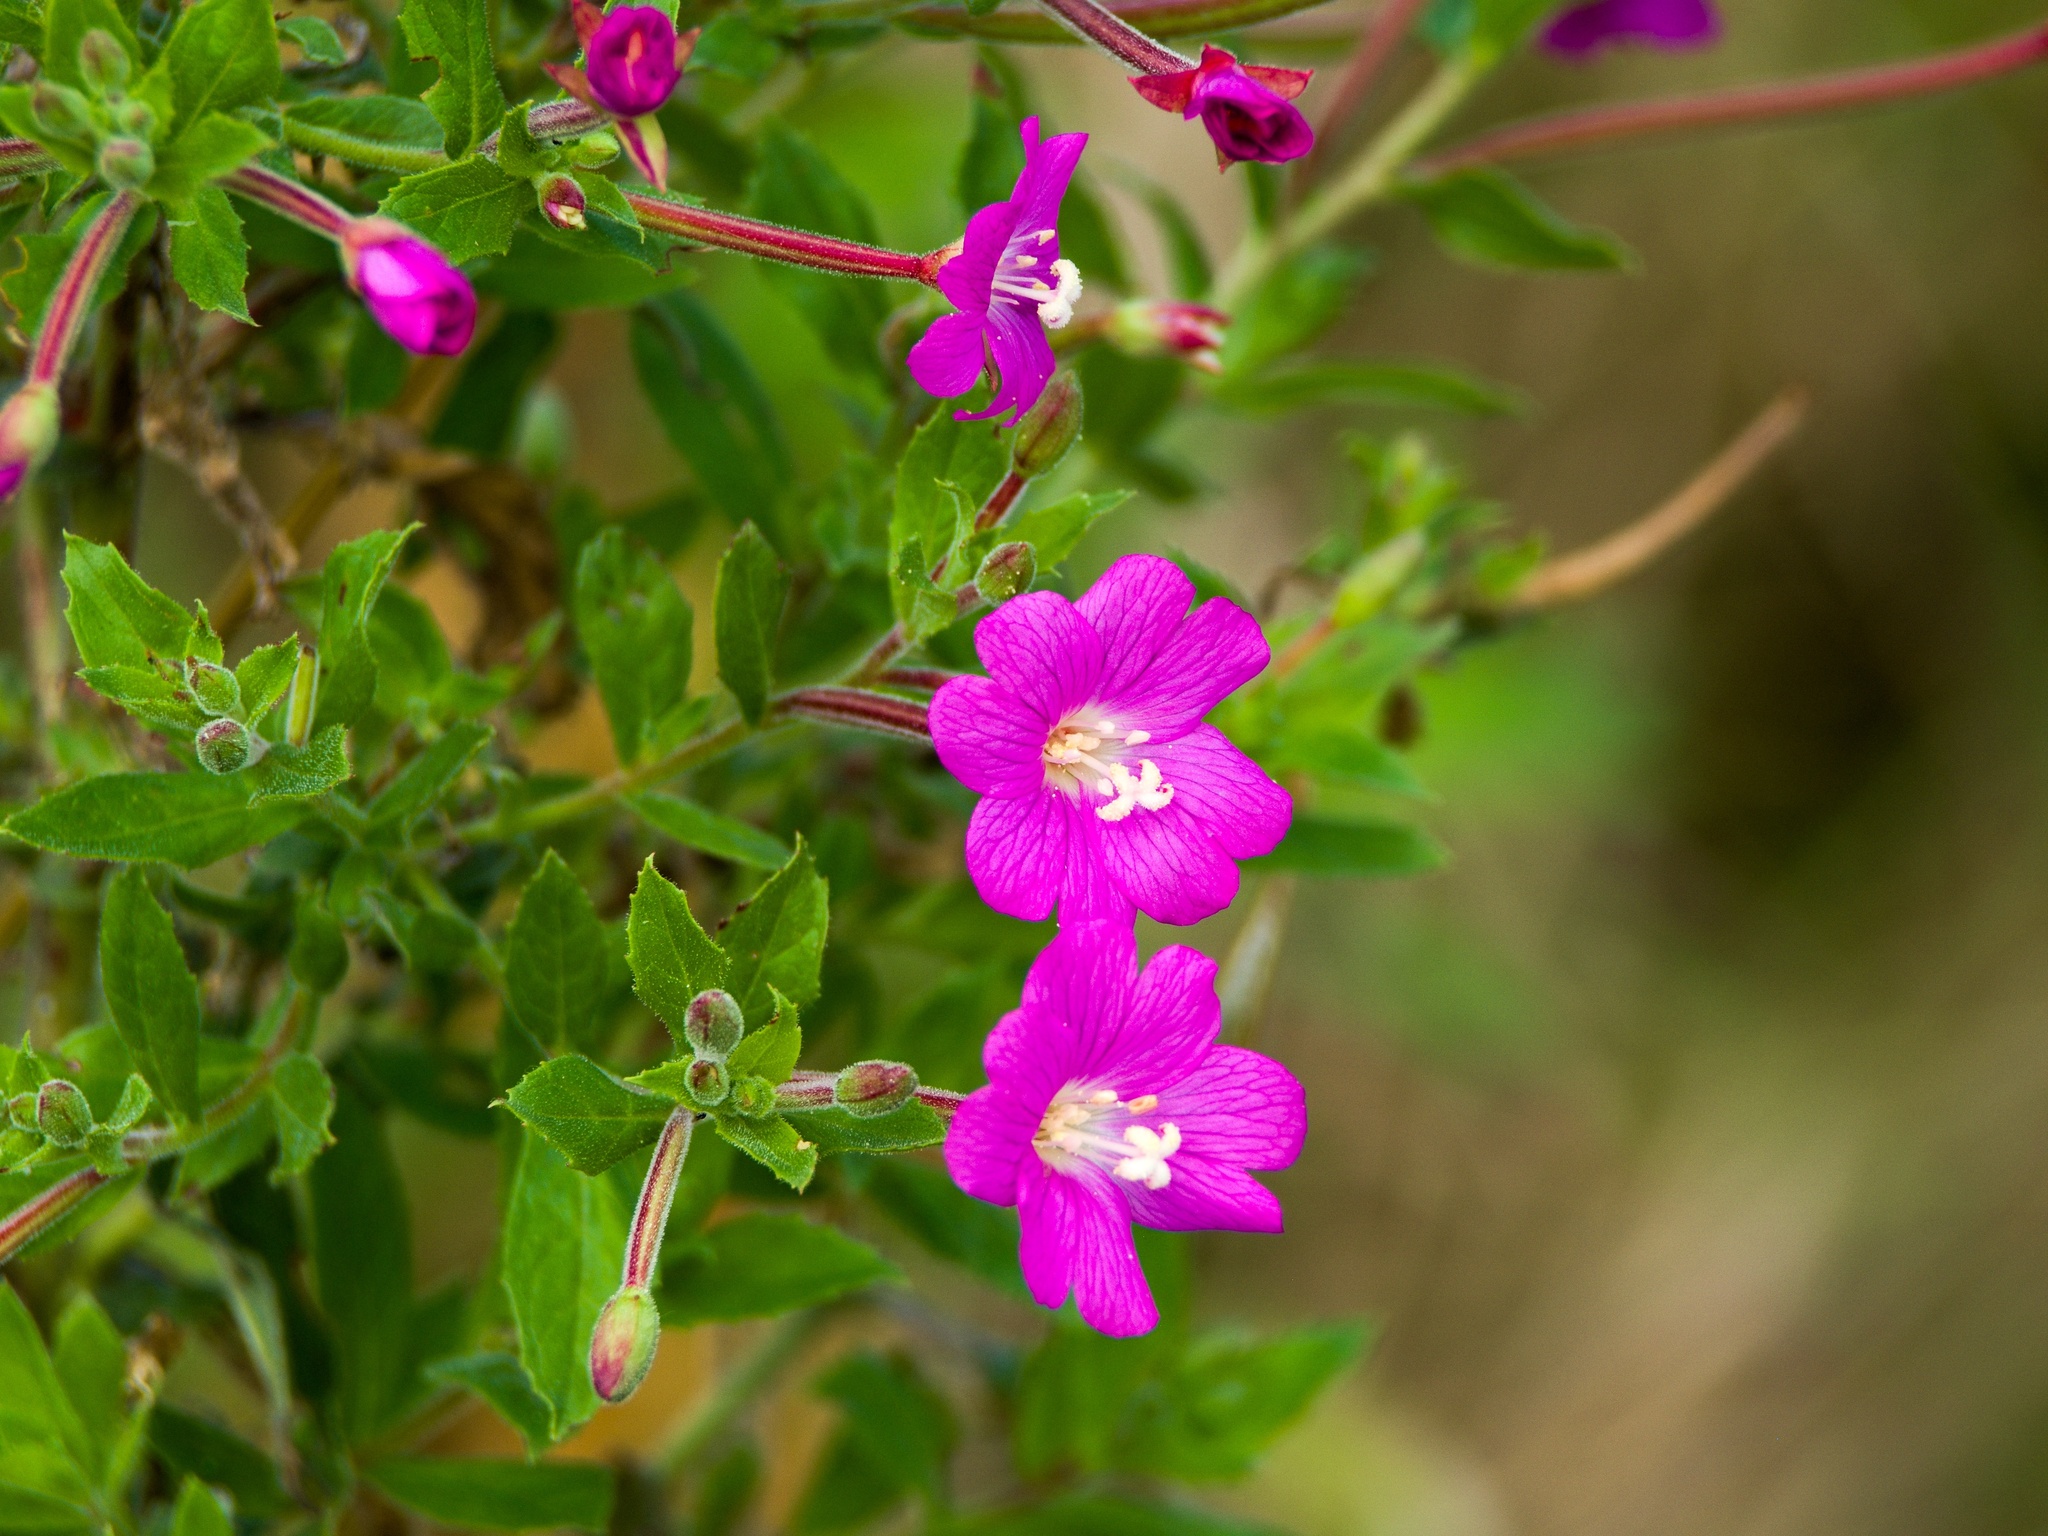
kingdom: Plantae
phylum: Tracheophyta
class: Magnoliopsida
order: Myrtales
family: Onagraceae
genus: Epilobium
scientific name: Epilobium hirsutum
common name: Great willowherb
